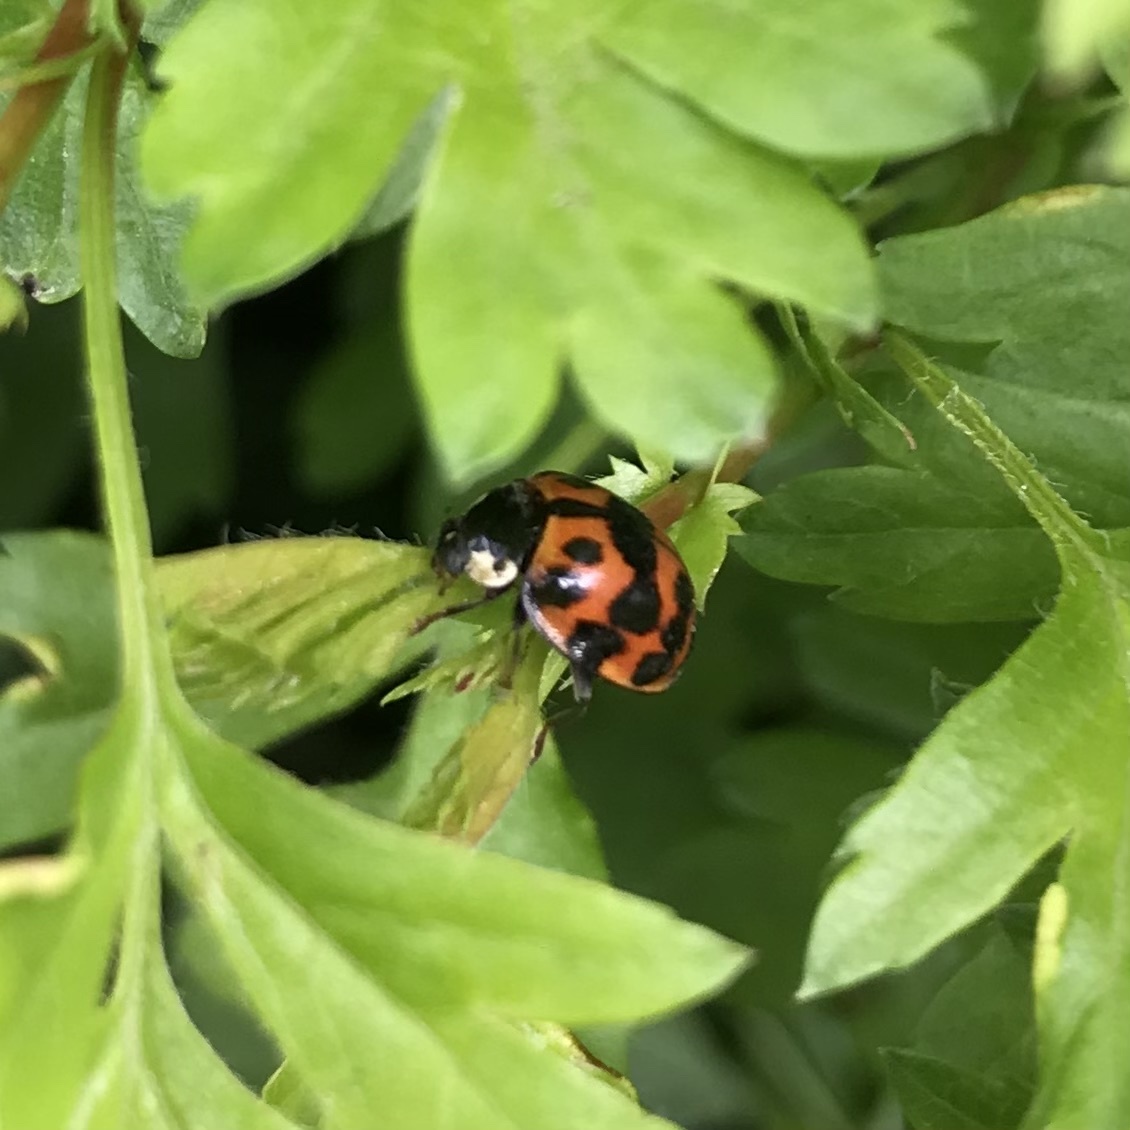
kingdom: Animalia
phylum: Arthropoda
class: Insecta
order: Coleoptera
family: Coccinellidae
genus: Harmonia
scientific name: Harmonia axyridis
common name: Harlequin ladybird
